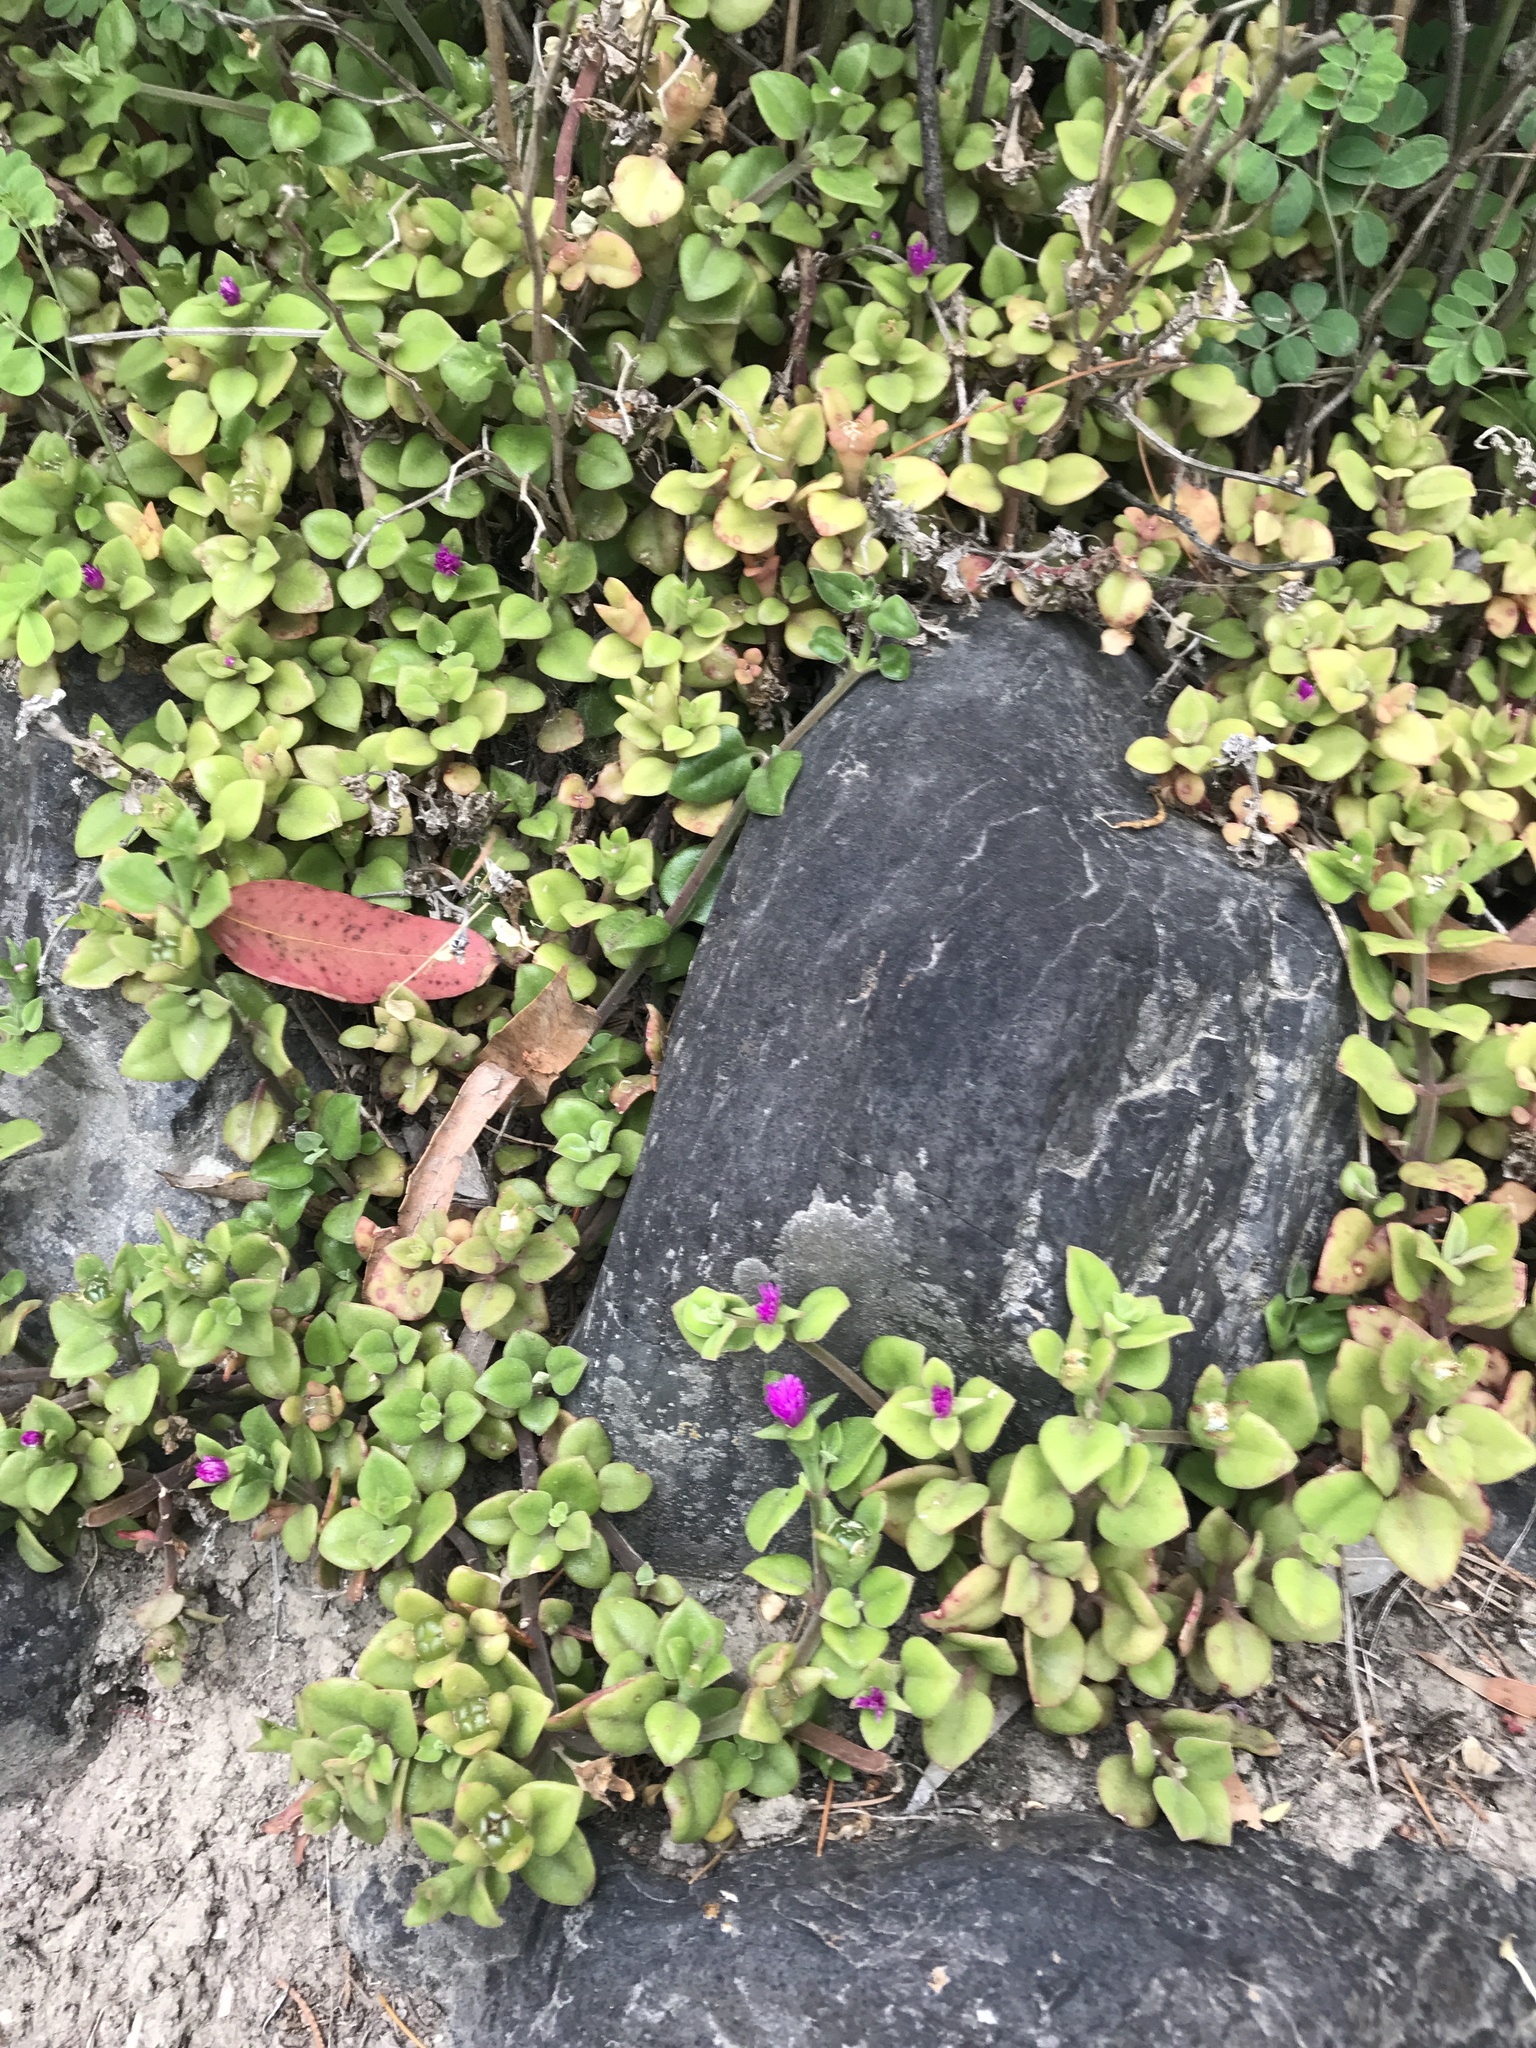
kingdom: Plantae
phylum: Tracheophyta
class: Magnoliopsida
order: Caryophyllales
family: Aizoaceae
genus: Mesembryanthemum
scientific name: Mesembryanthemum cordifolium
